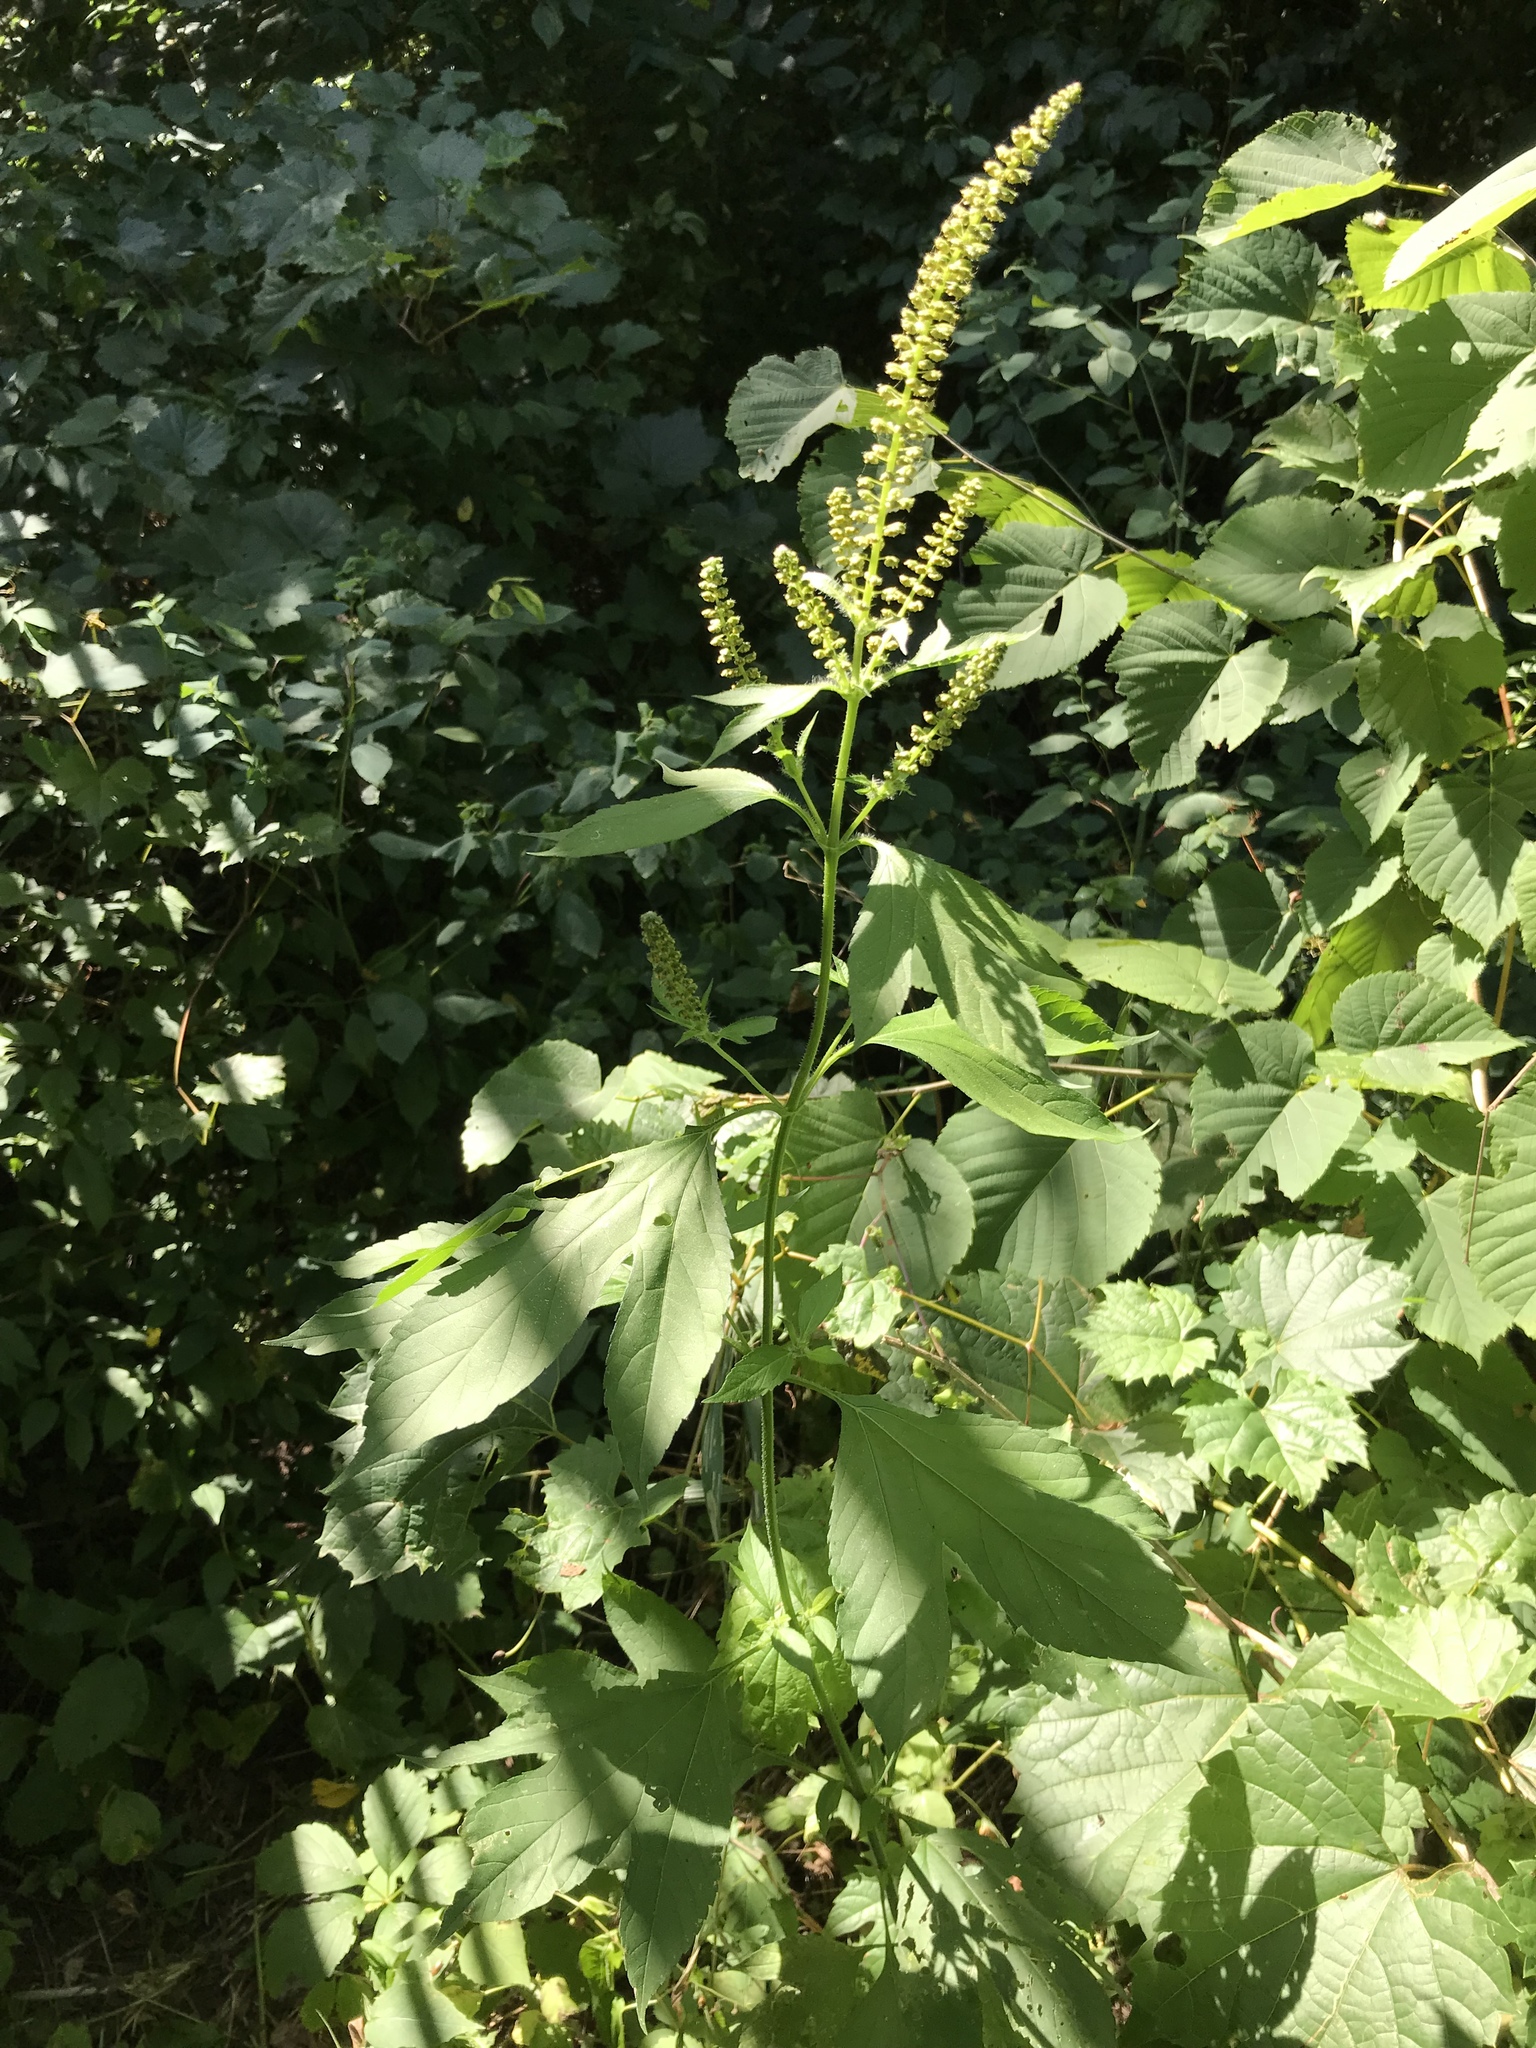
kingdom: Plantae
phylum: Tracheophyta
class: Magnoliopsida
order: Asterales
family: Asteraceae
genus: Ambrosia
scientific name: Ambrosia trifida
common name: Giant ragweed
